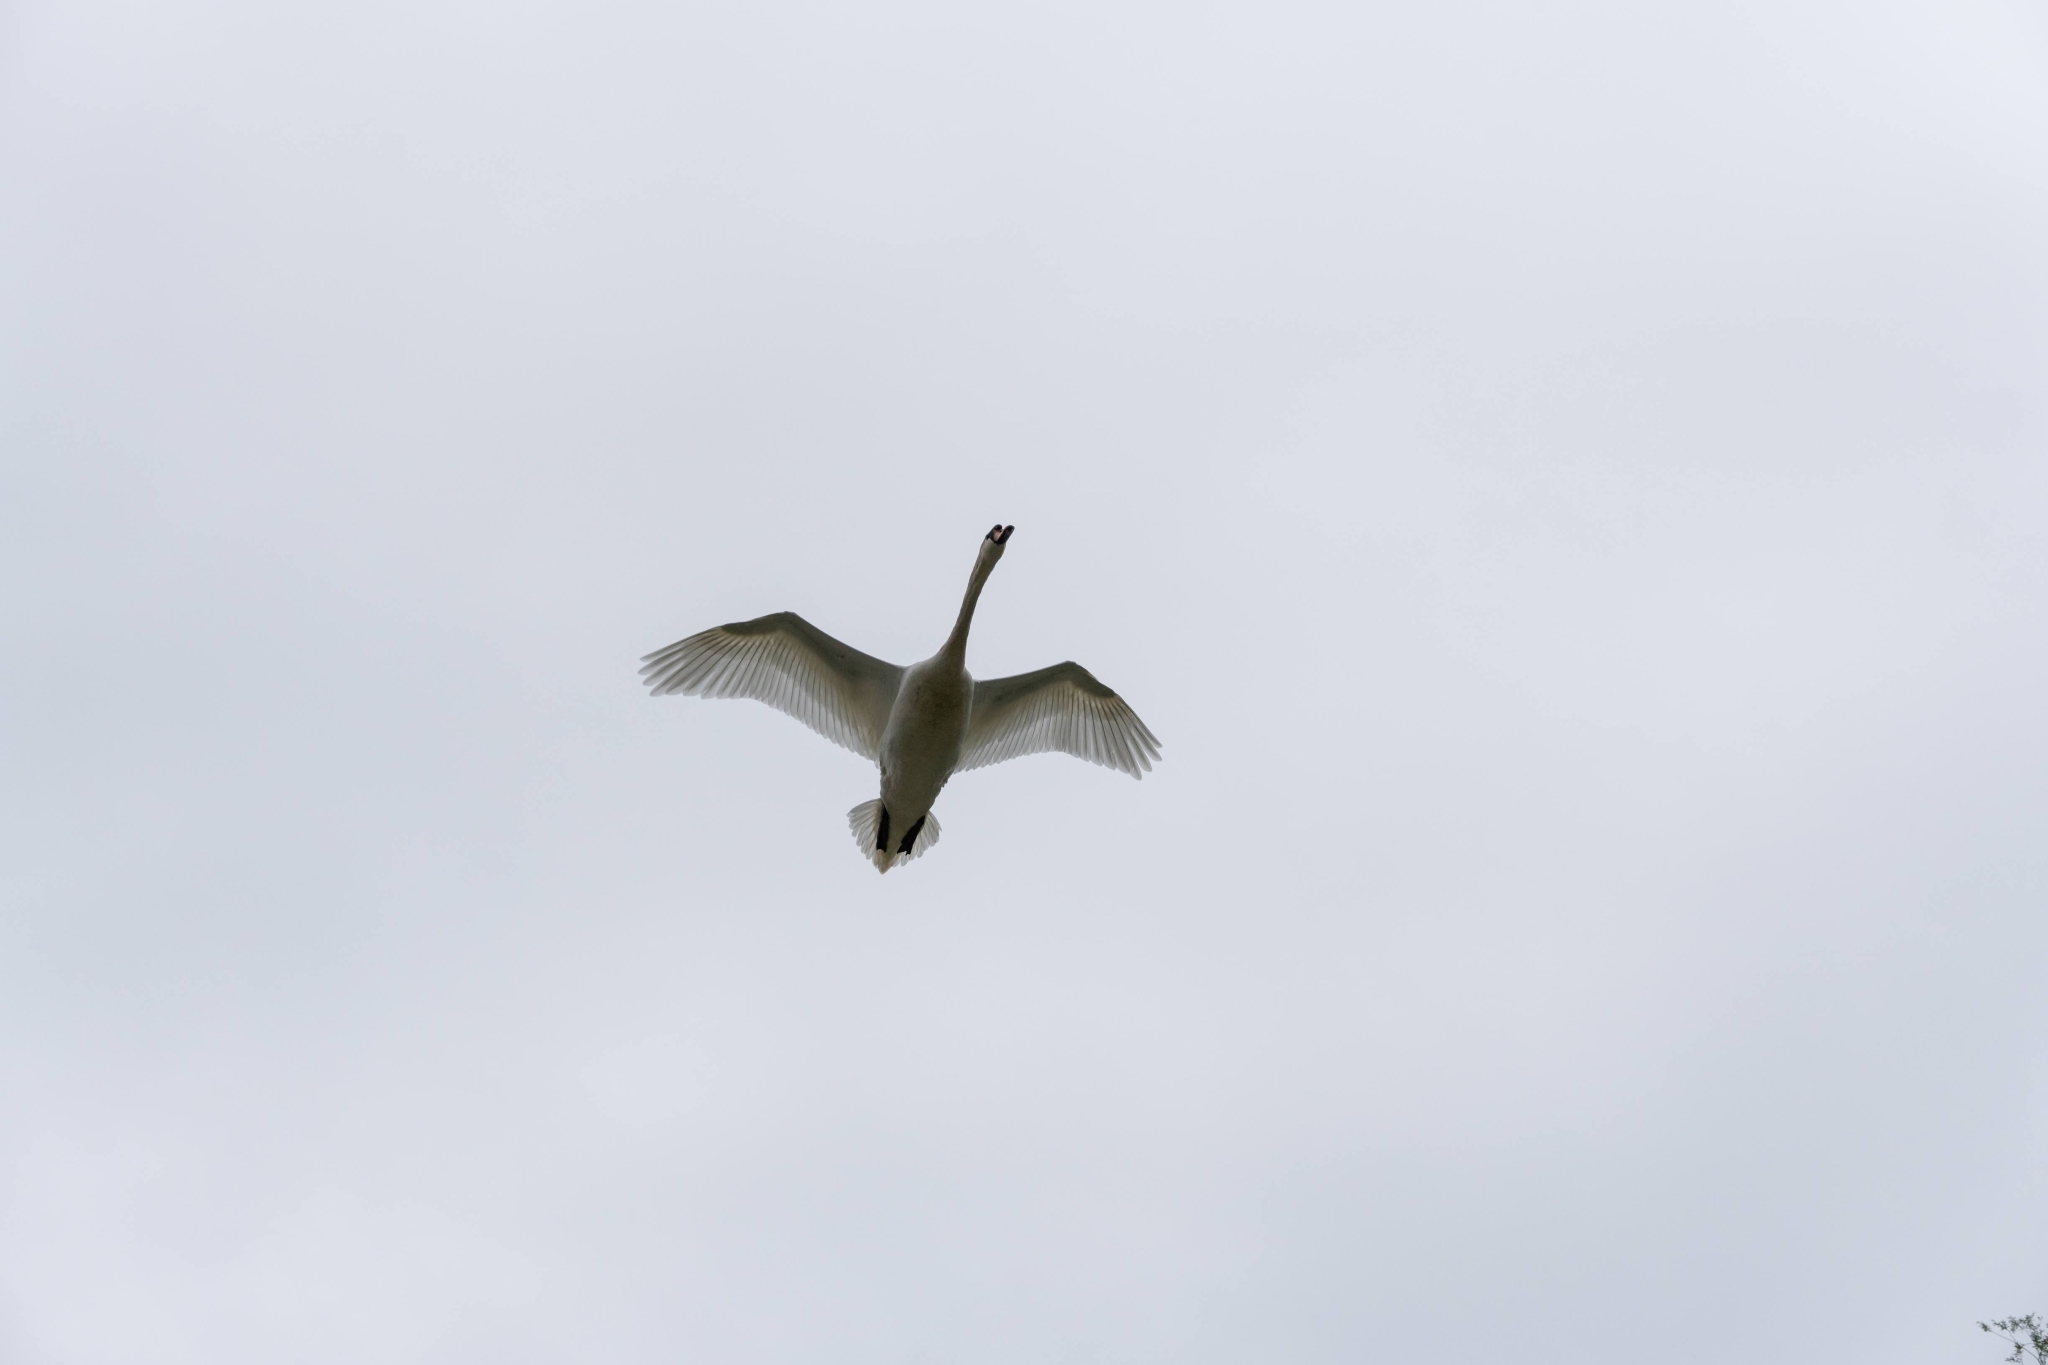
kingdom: Animalia
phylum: Chordata
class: Aves
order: Anseriformes
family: Anatidae
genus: Cygnus
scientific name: Cygnus olor
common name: Mute swan
